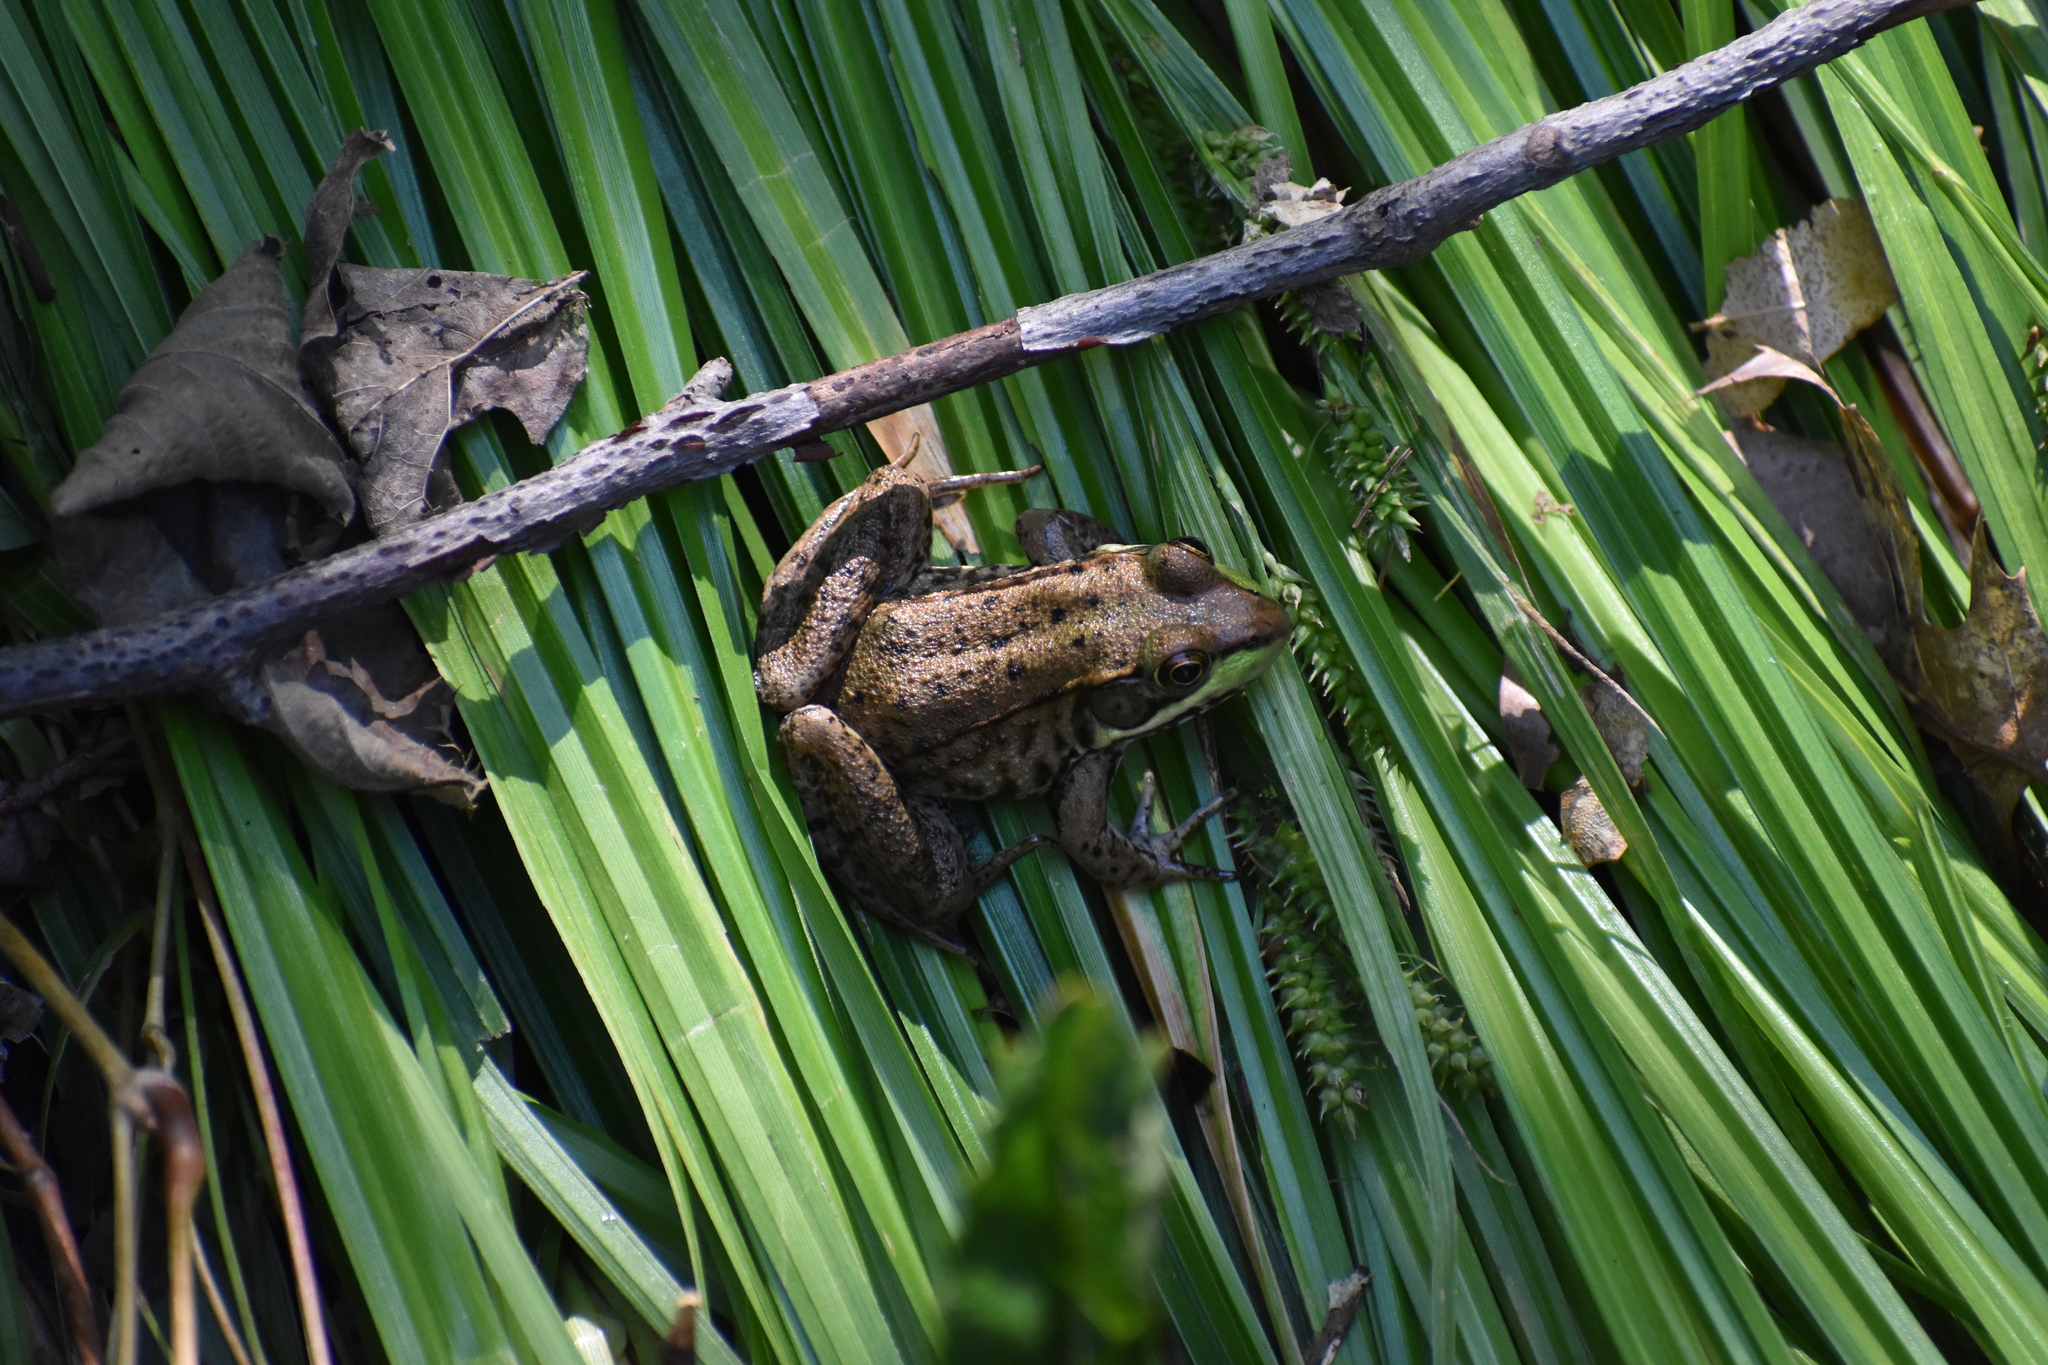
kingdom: Animalia
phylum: Chordata
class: Amphibia
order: Anura
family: Ranidae
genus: Lithobates
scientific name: Lithobates clamitans
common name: Green frog
